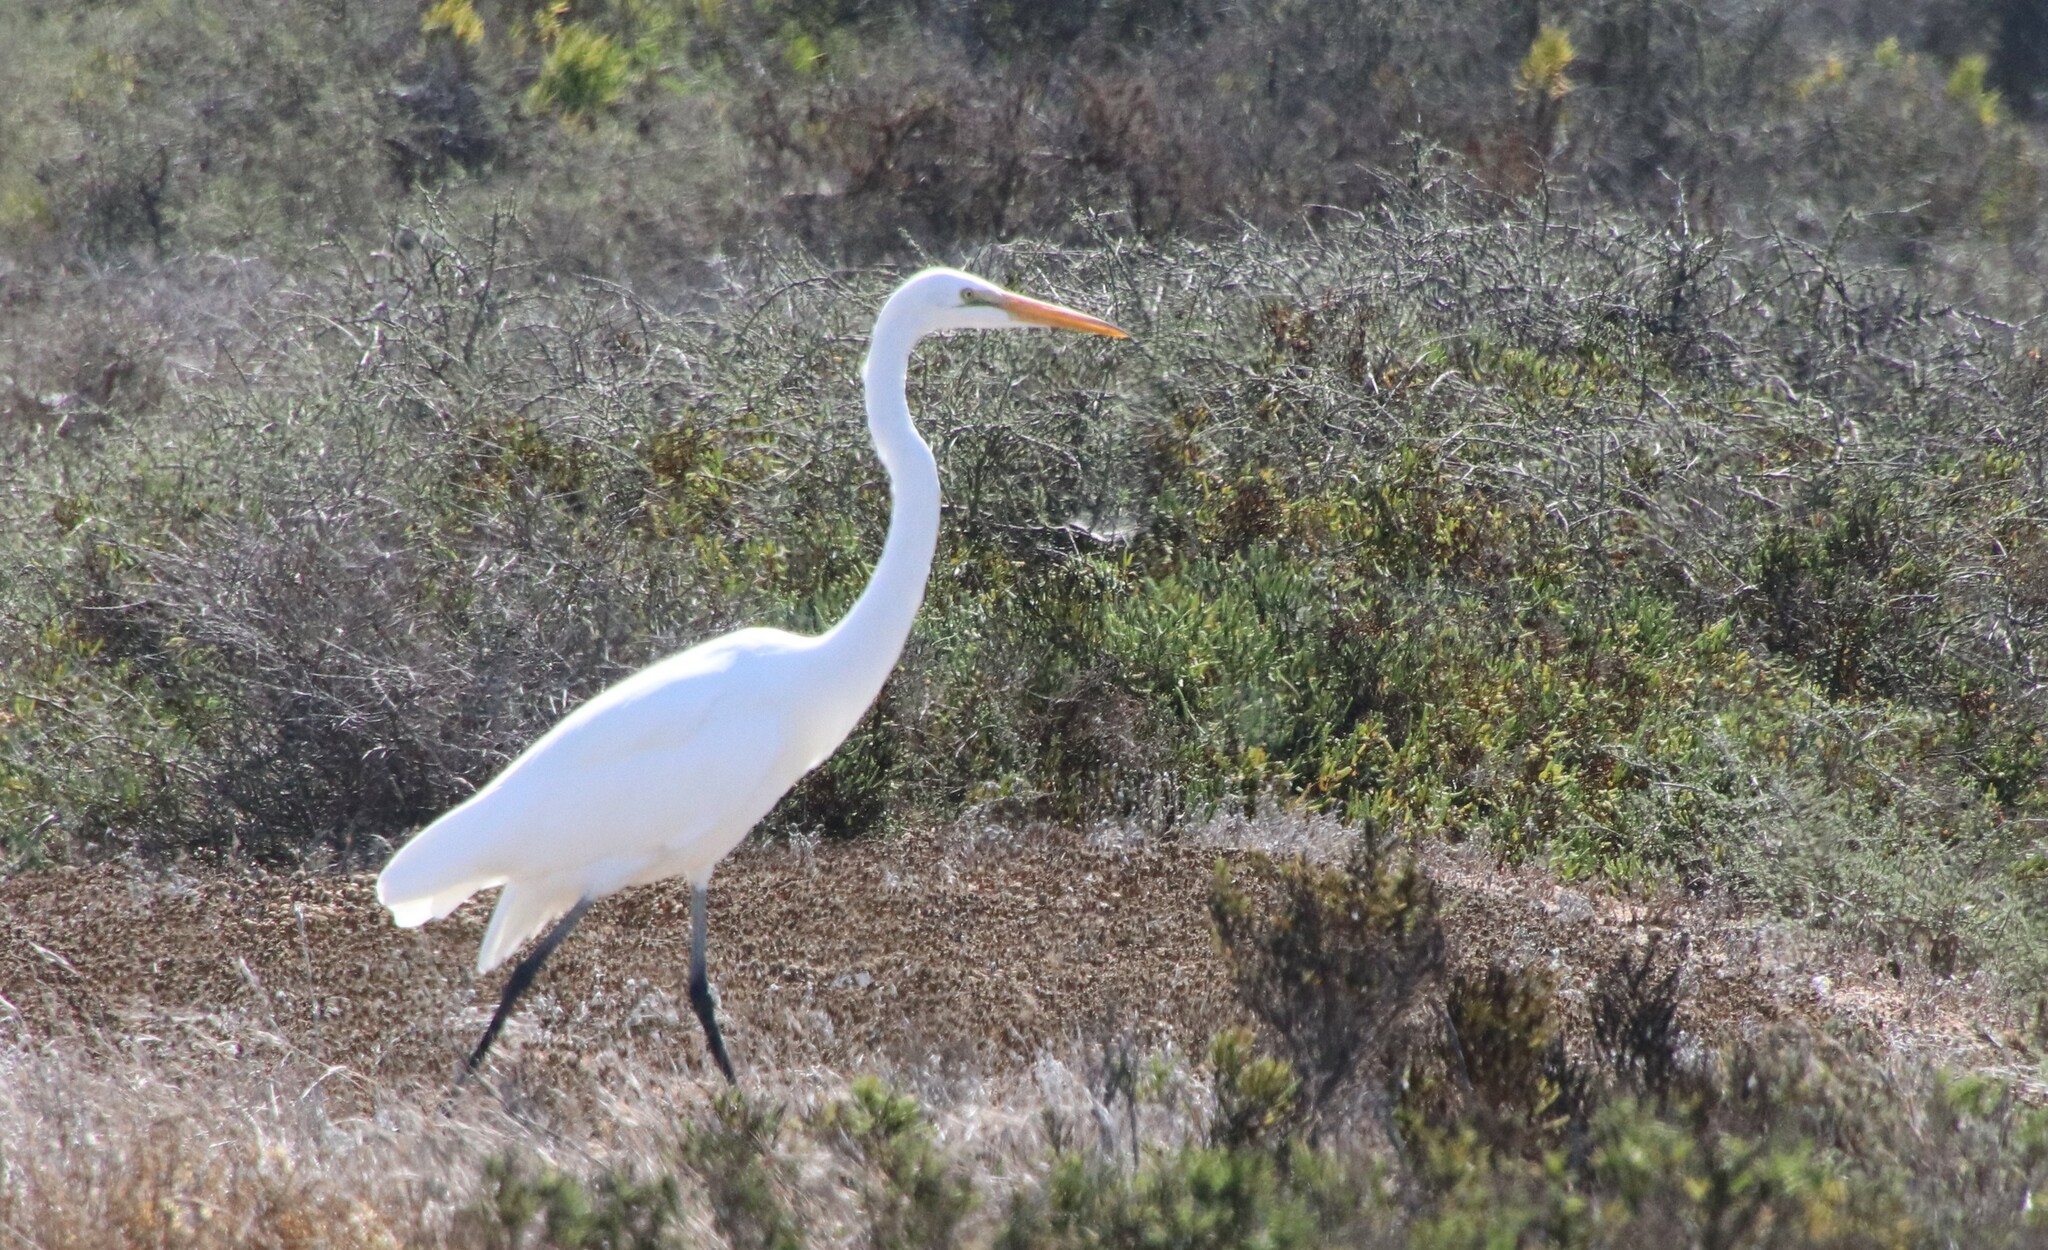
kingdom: Animalia
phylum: Chordata
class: Aves
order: Pelecaniformes
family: Ardeidae
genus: Ardea
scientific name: Ardea alba
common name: Great egret
